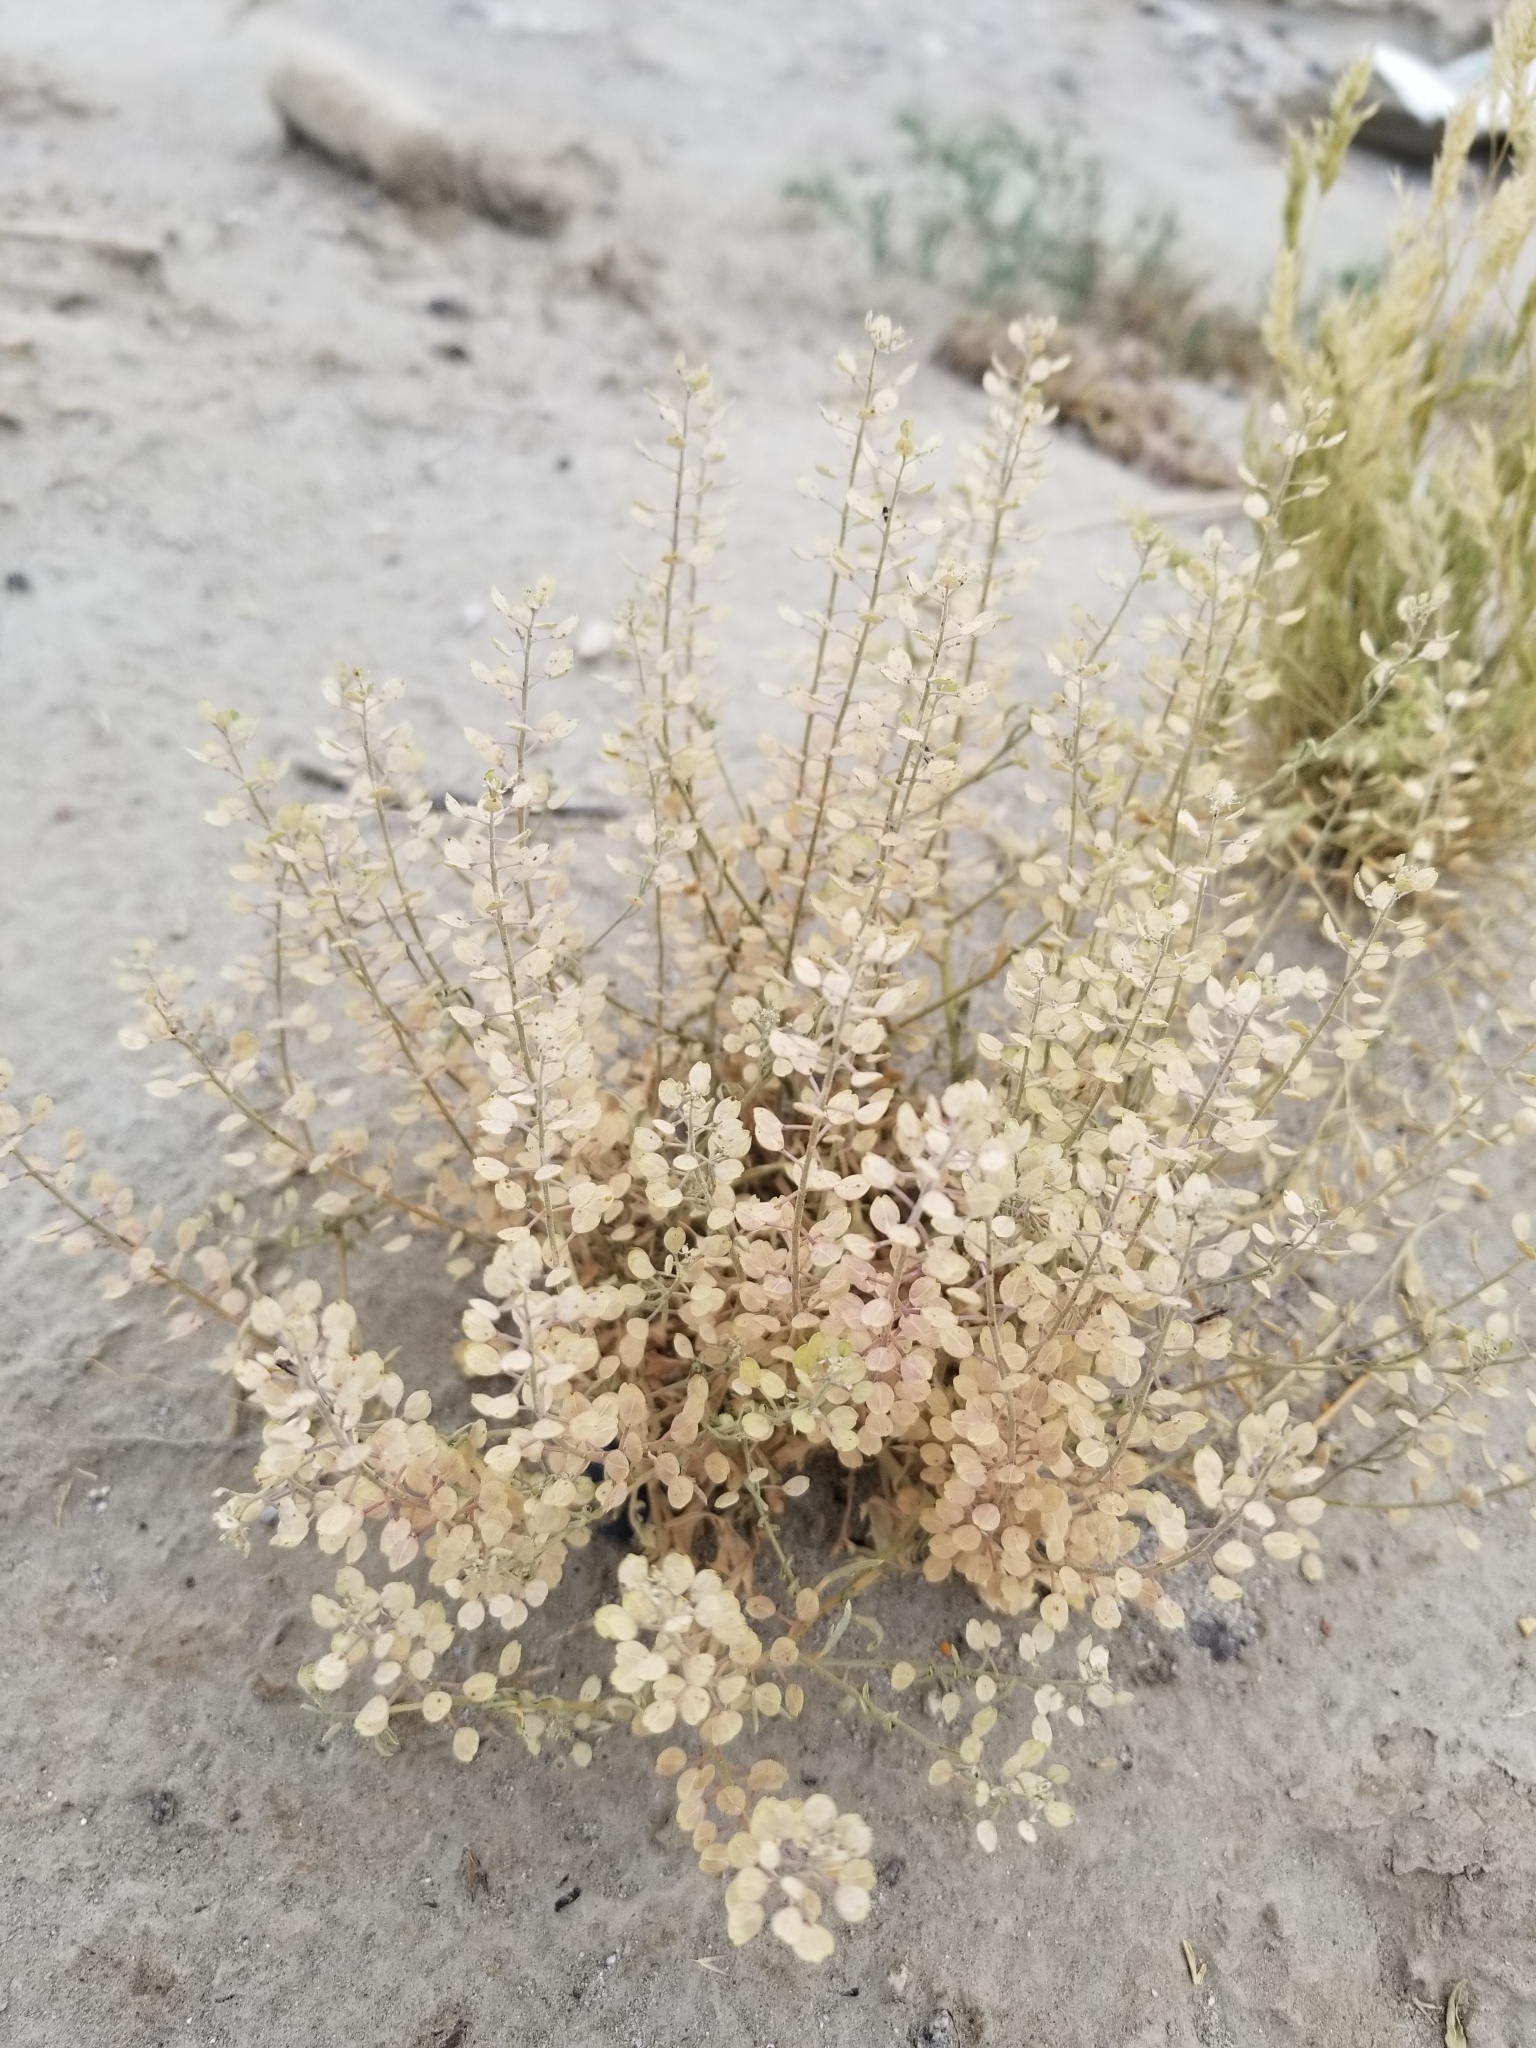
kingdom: Plantae
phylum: Tracheophyta
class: Magnoliopsida
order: Brassicales
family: Brassicaceae
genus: Lepidium
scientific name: Lepidium lasiocarpum
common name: Hairy-pod pepperwort
